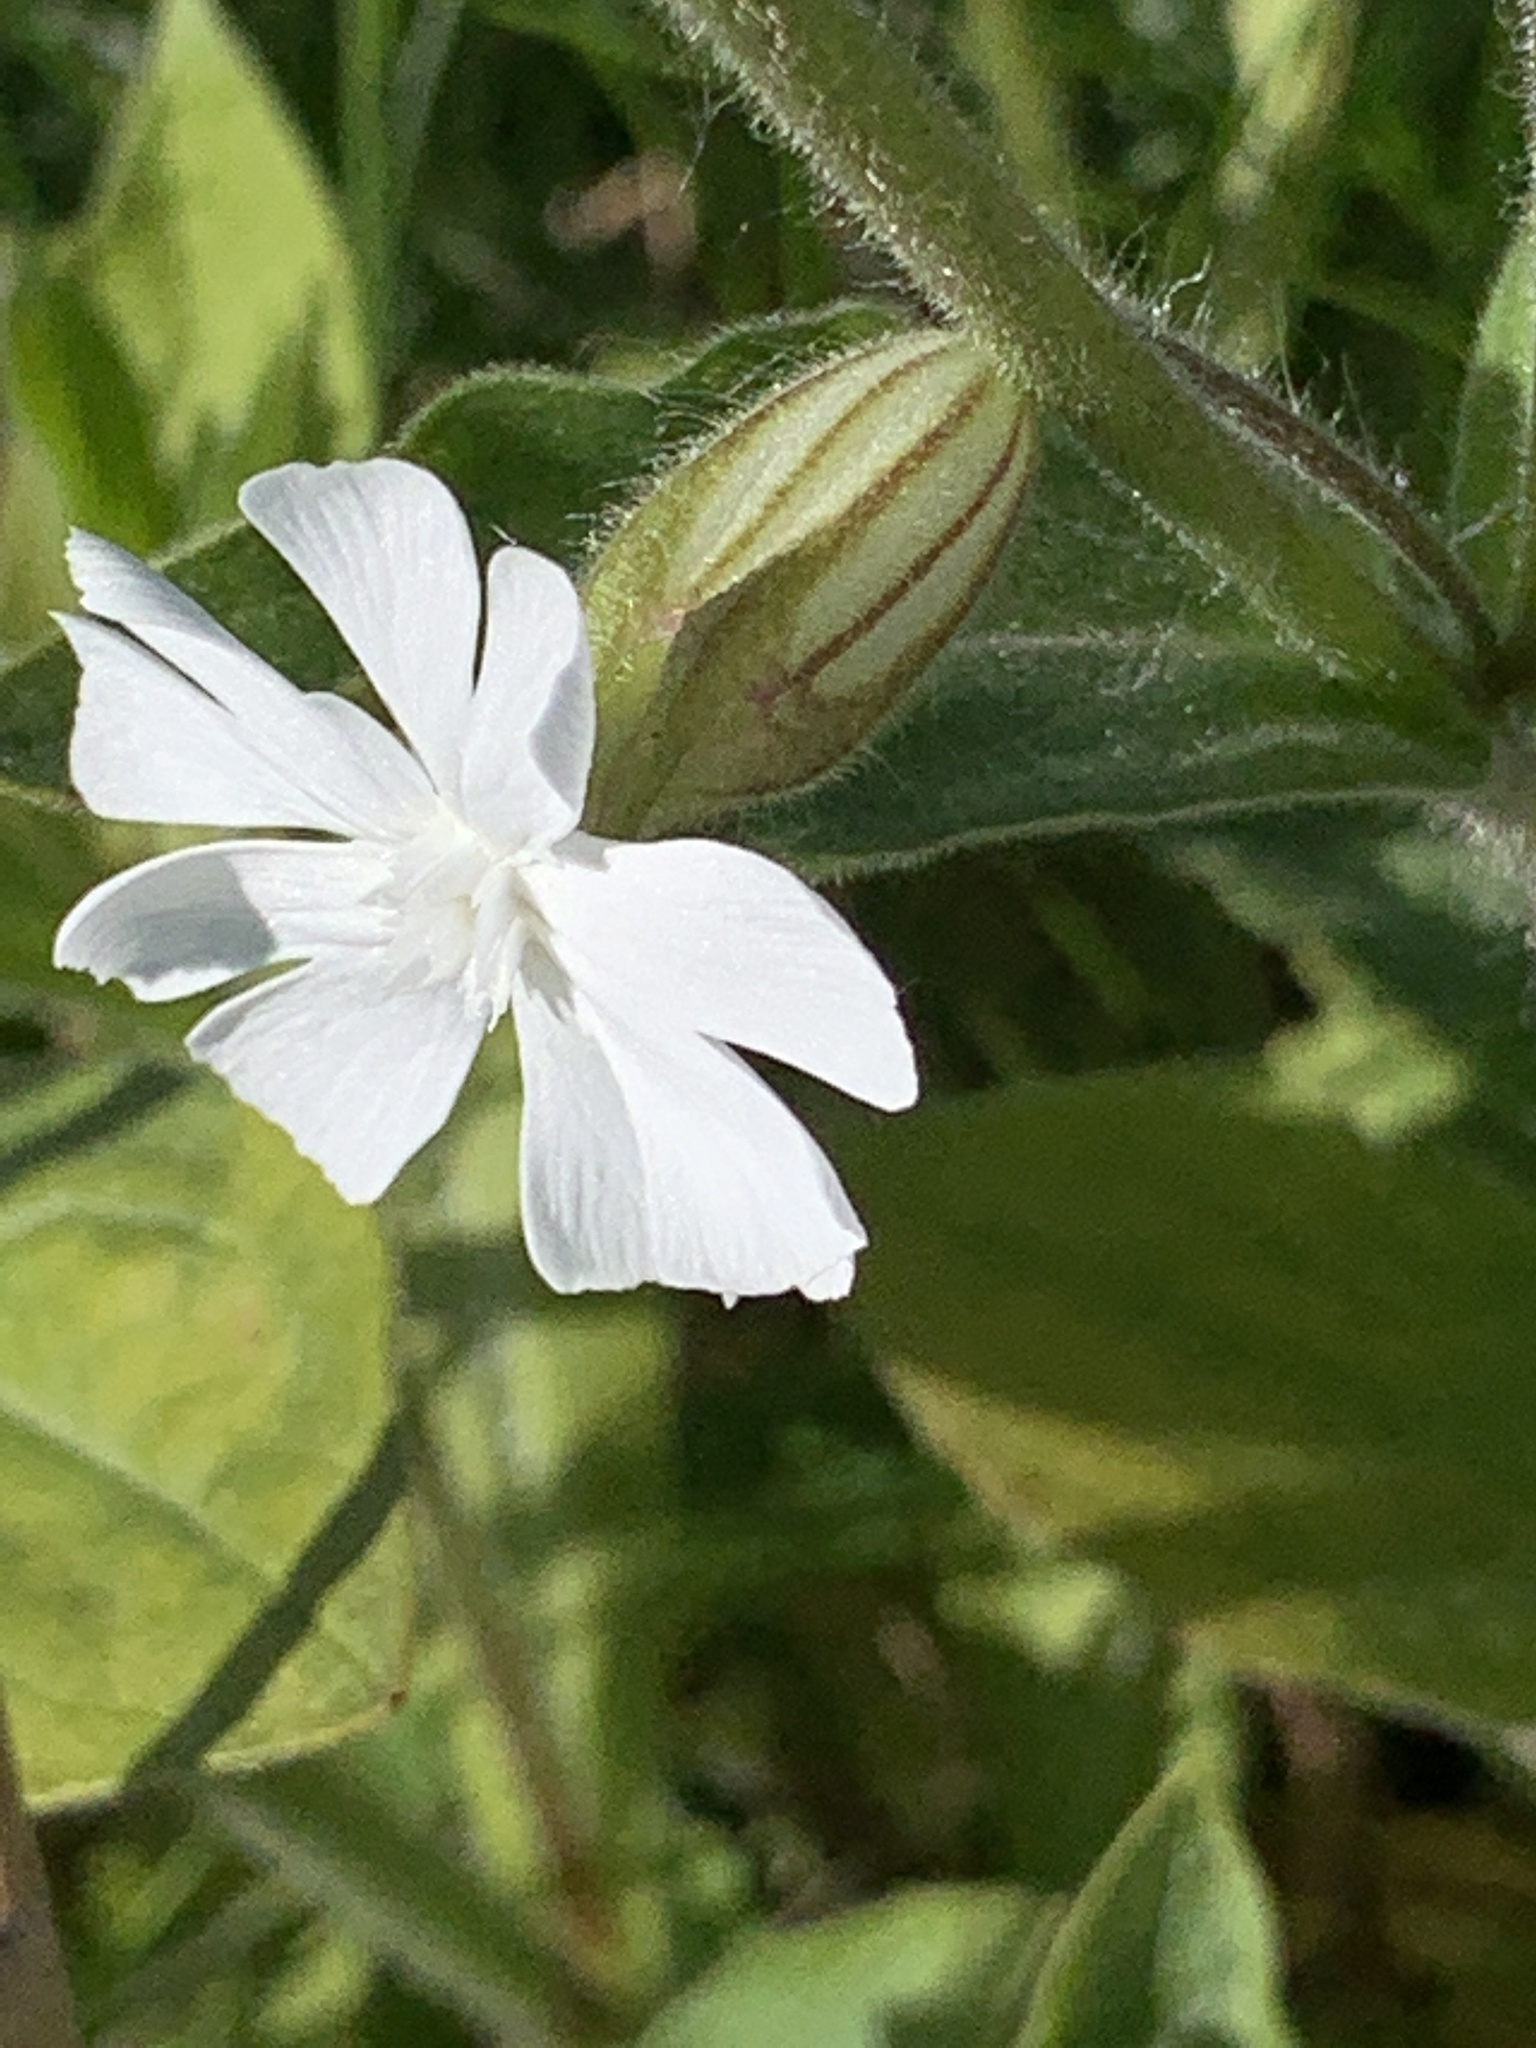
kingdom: Plantae
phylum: Tracheophyta
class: Magnoliopsida
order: Caryophyllales
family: Caryophyllaceae
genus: Silene
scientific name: Silene latifolia
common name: White campion
